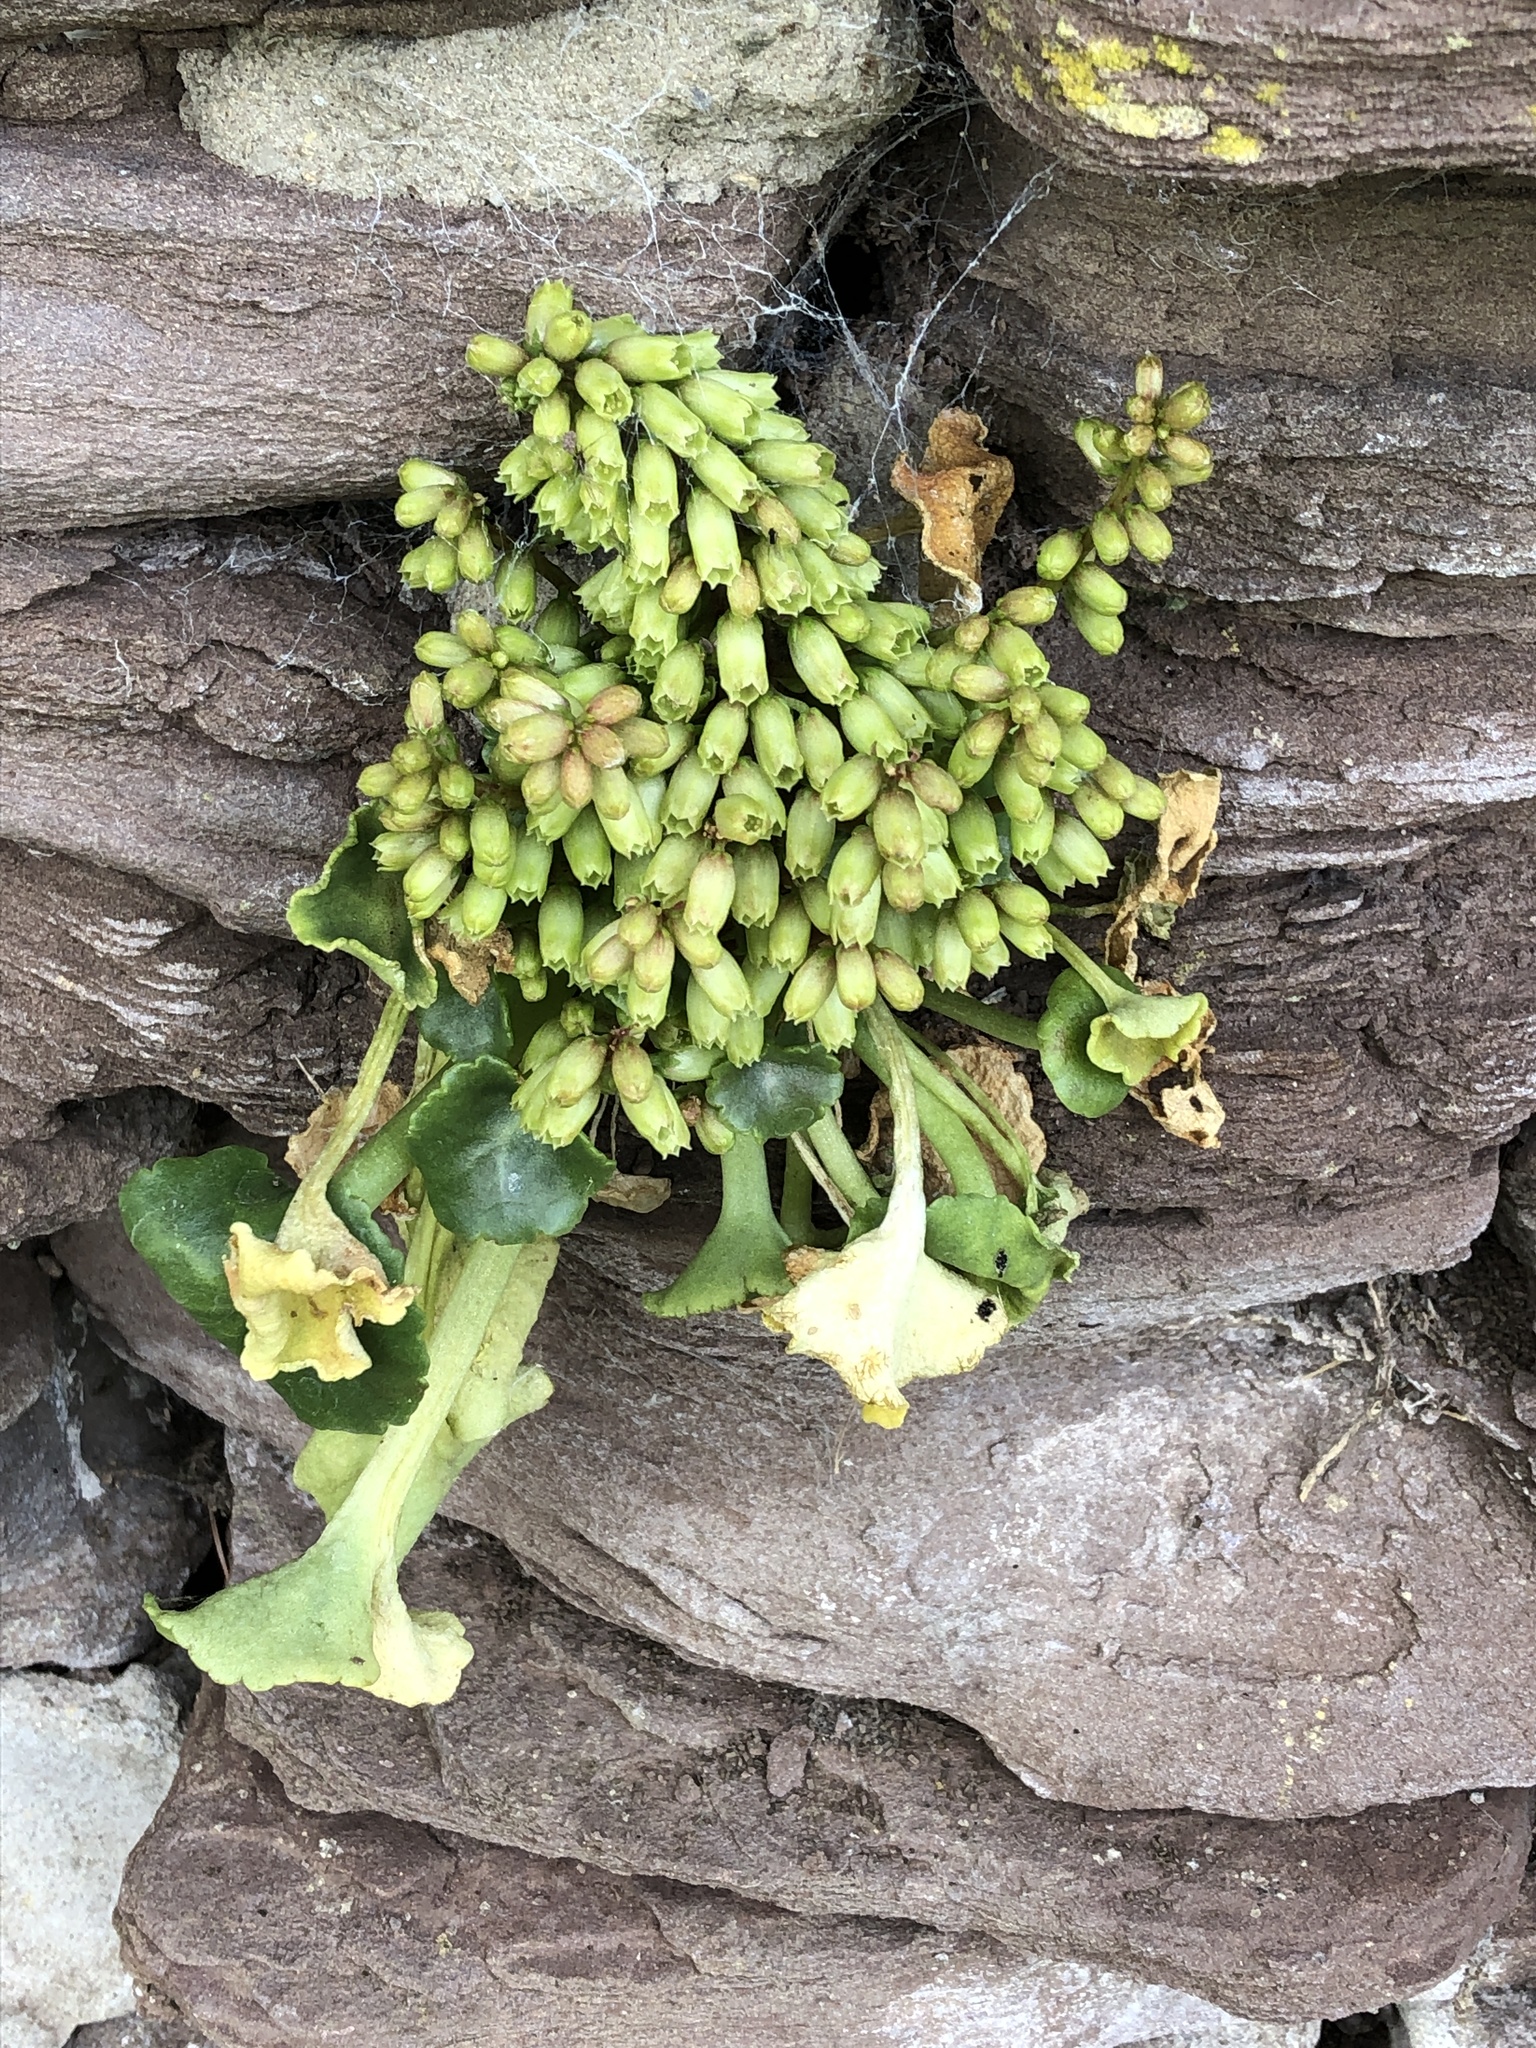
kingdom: Plantae
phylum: Tracheophyta
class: Magnoliopsida
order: Saxifragales
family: Crassulaceae
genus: Umbilicus
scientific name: Umbilicus rupestris
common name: Navelwort
